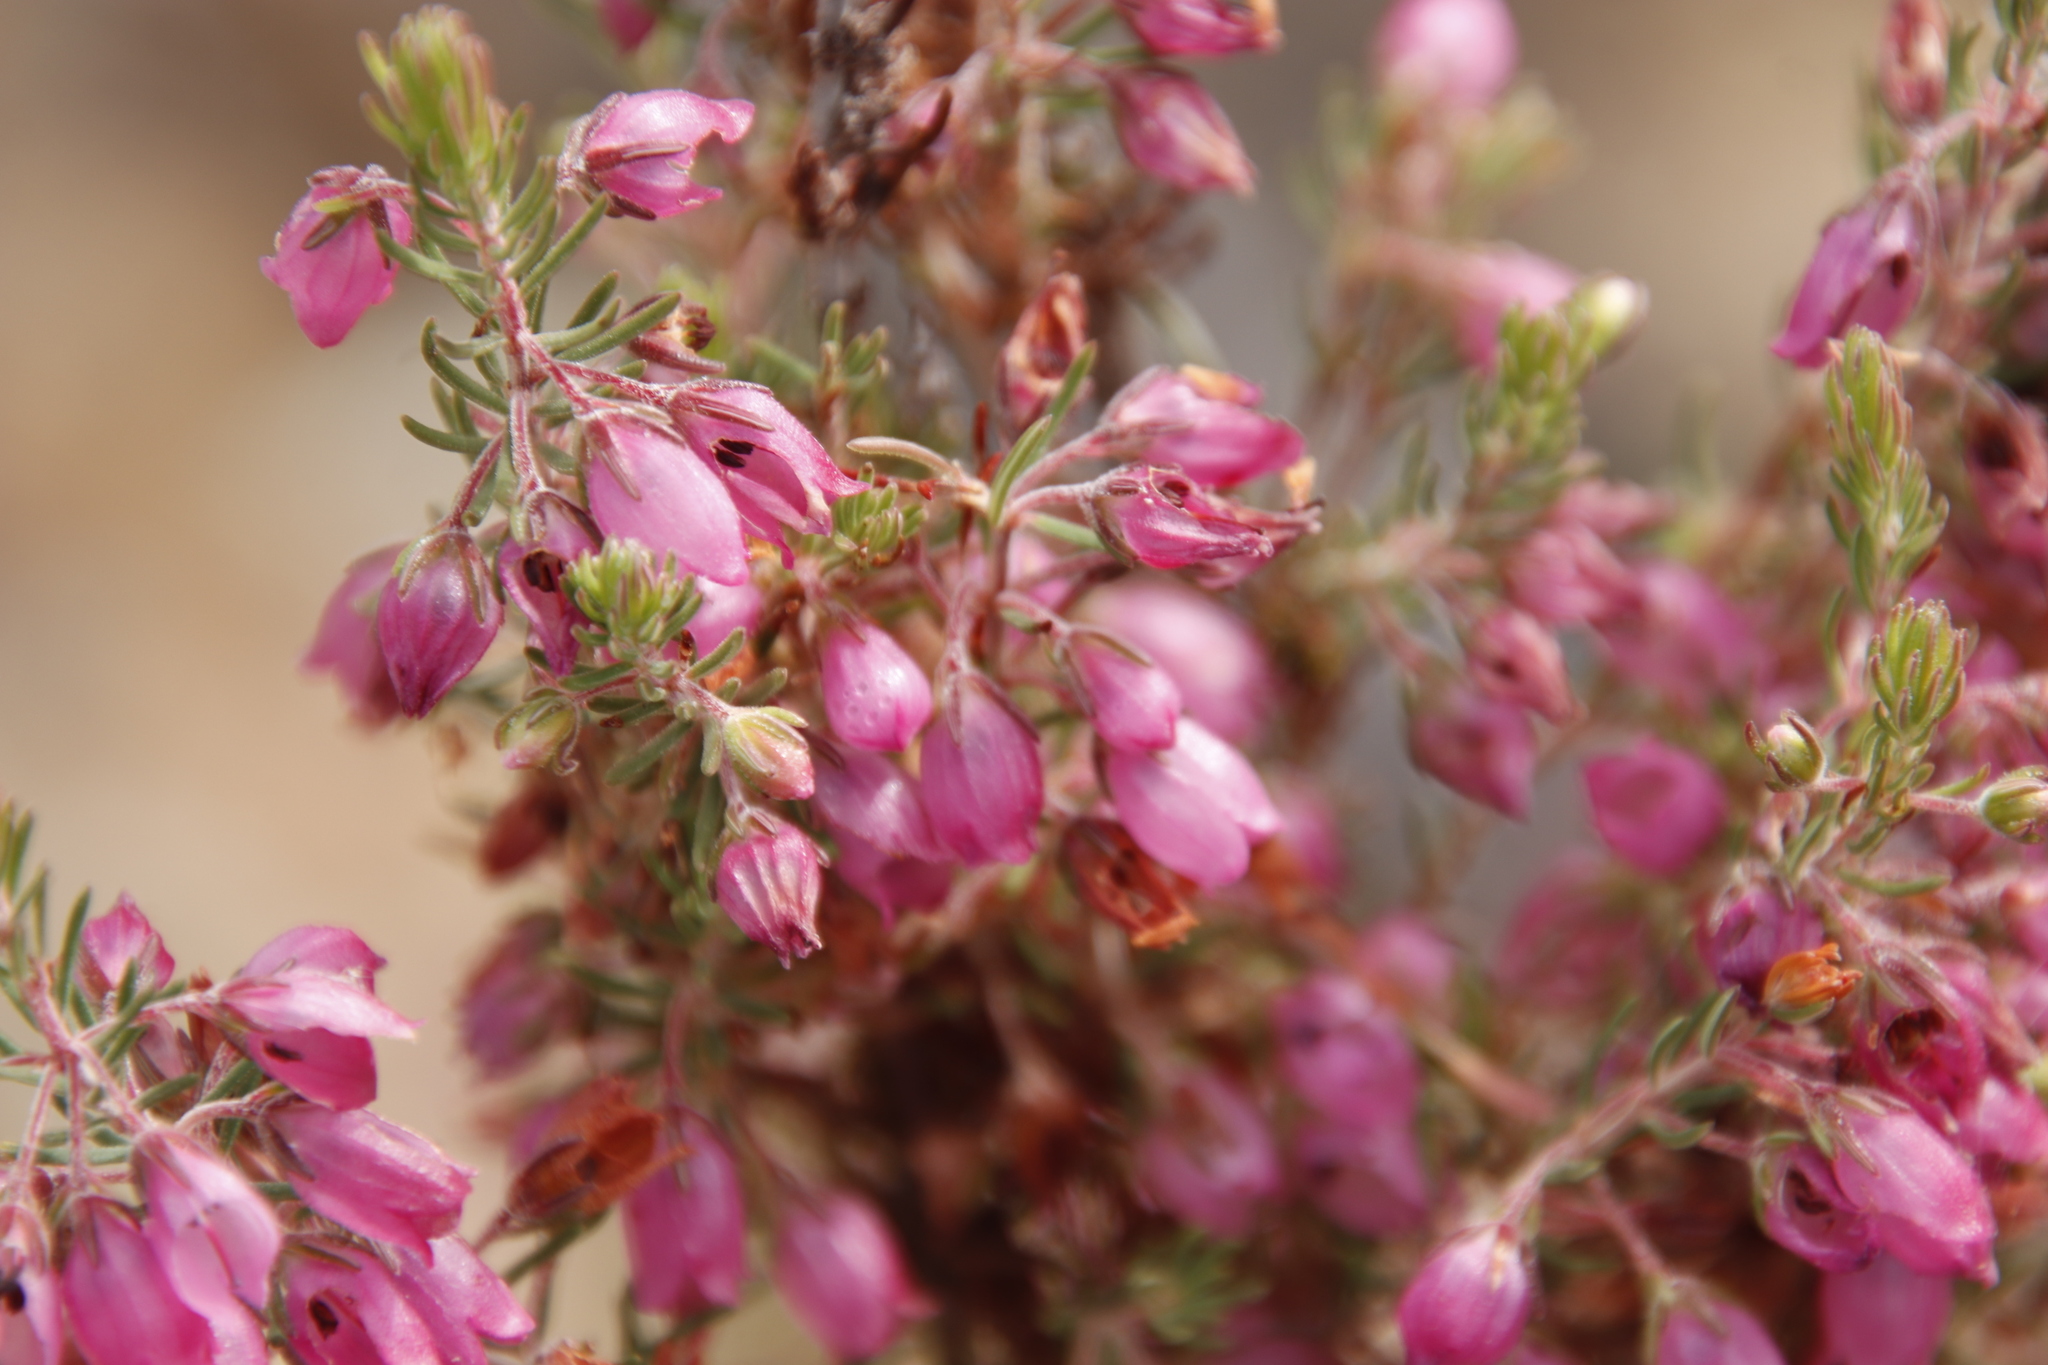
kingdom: Plantae
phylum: Tracheophyta
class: Magnoliopsida
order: Ericales
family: Ericaceae
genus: Erica
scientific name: Erica viscaria
